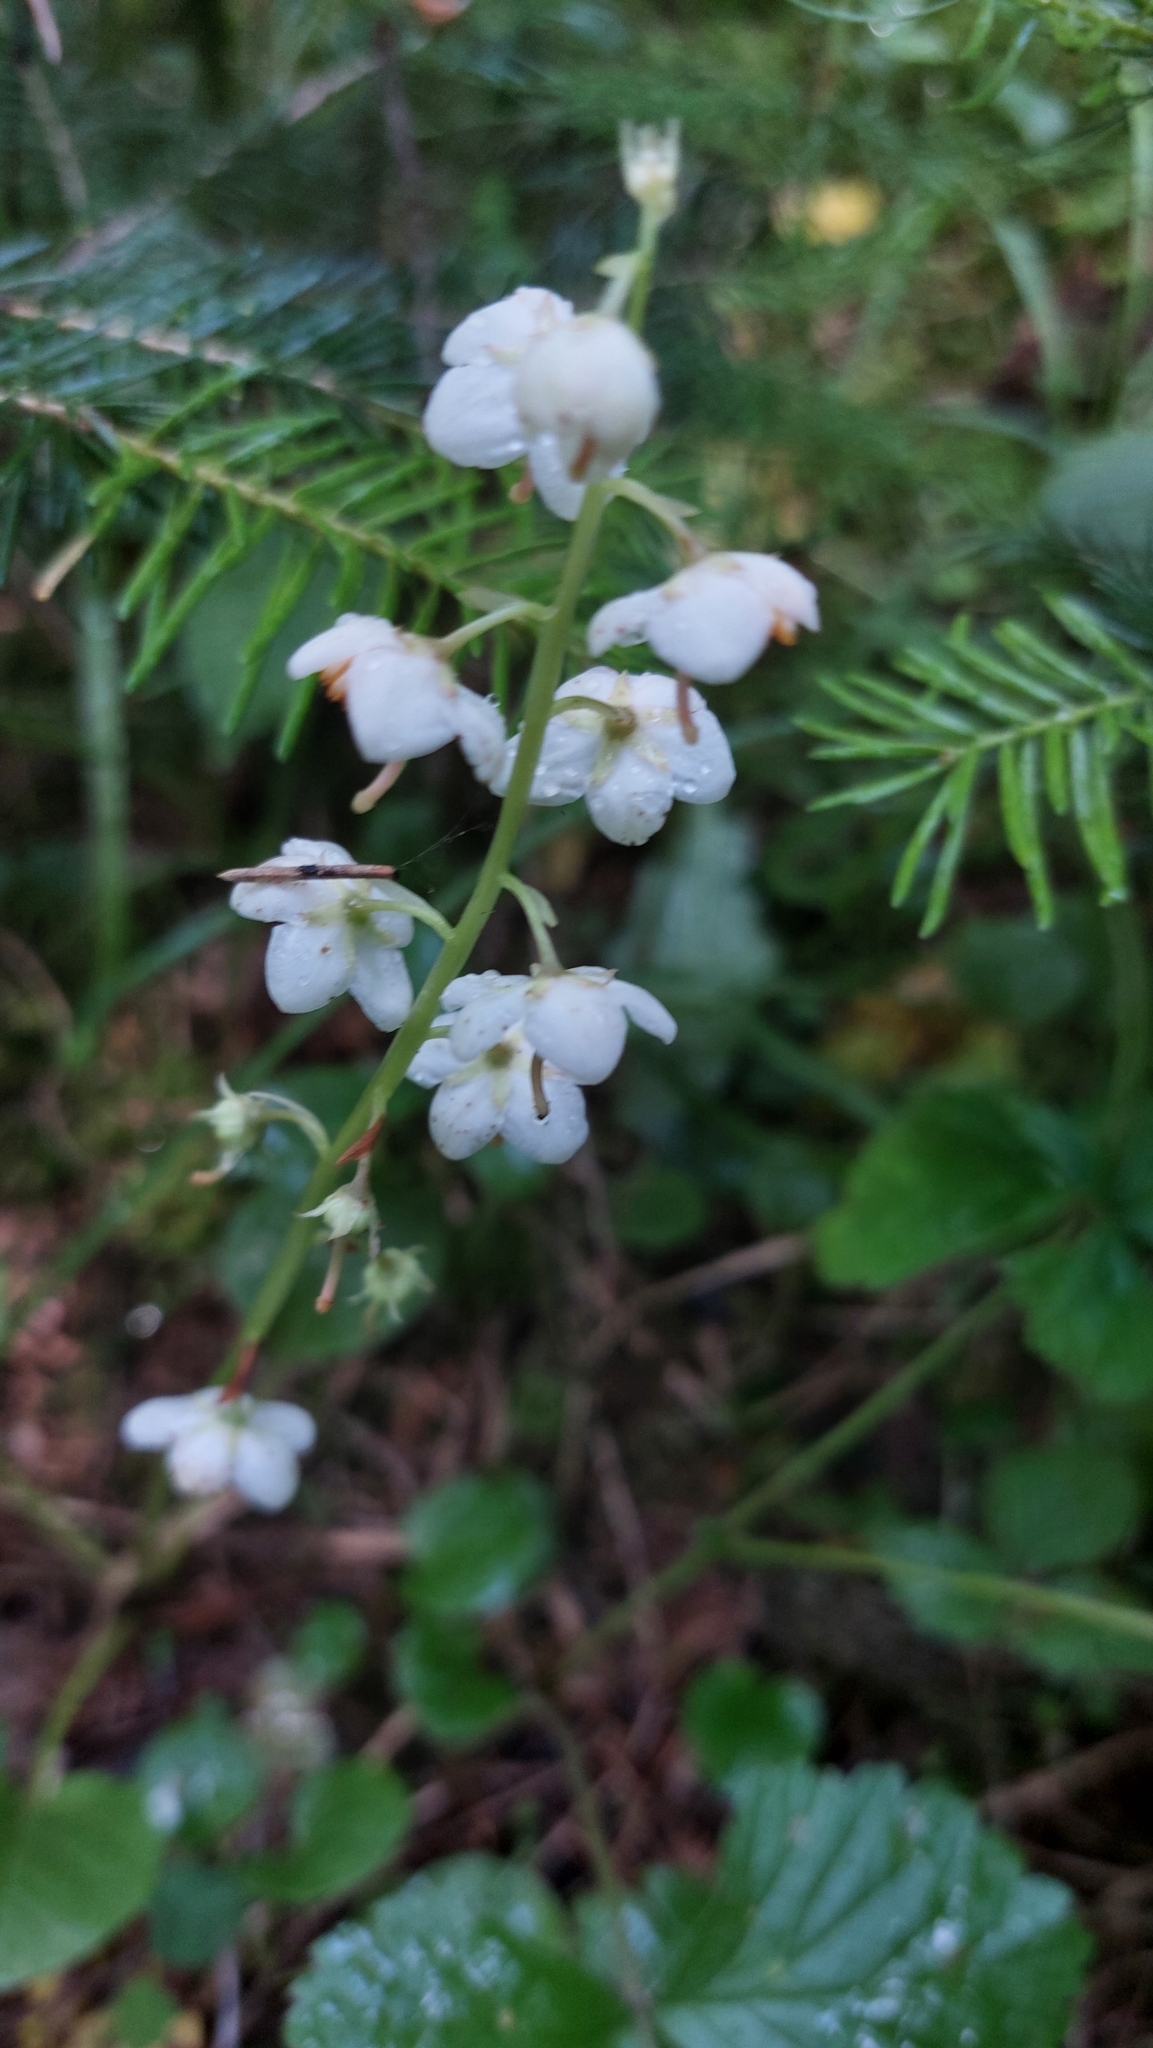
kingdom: Plantae
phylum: Tracheophyta
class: Magnoliopsida
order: Ericales
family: Ericaceae
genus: Pyrola
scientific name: Pyrola rotundifolia
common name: Round-leaved wintergreen
